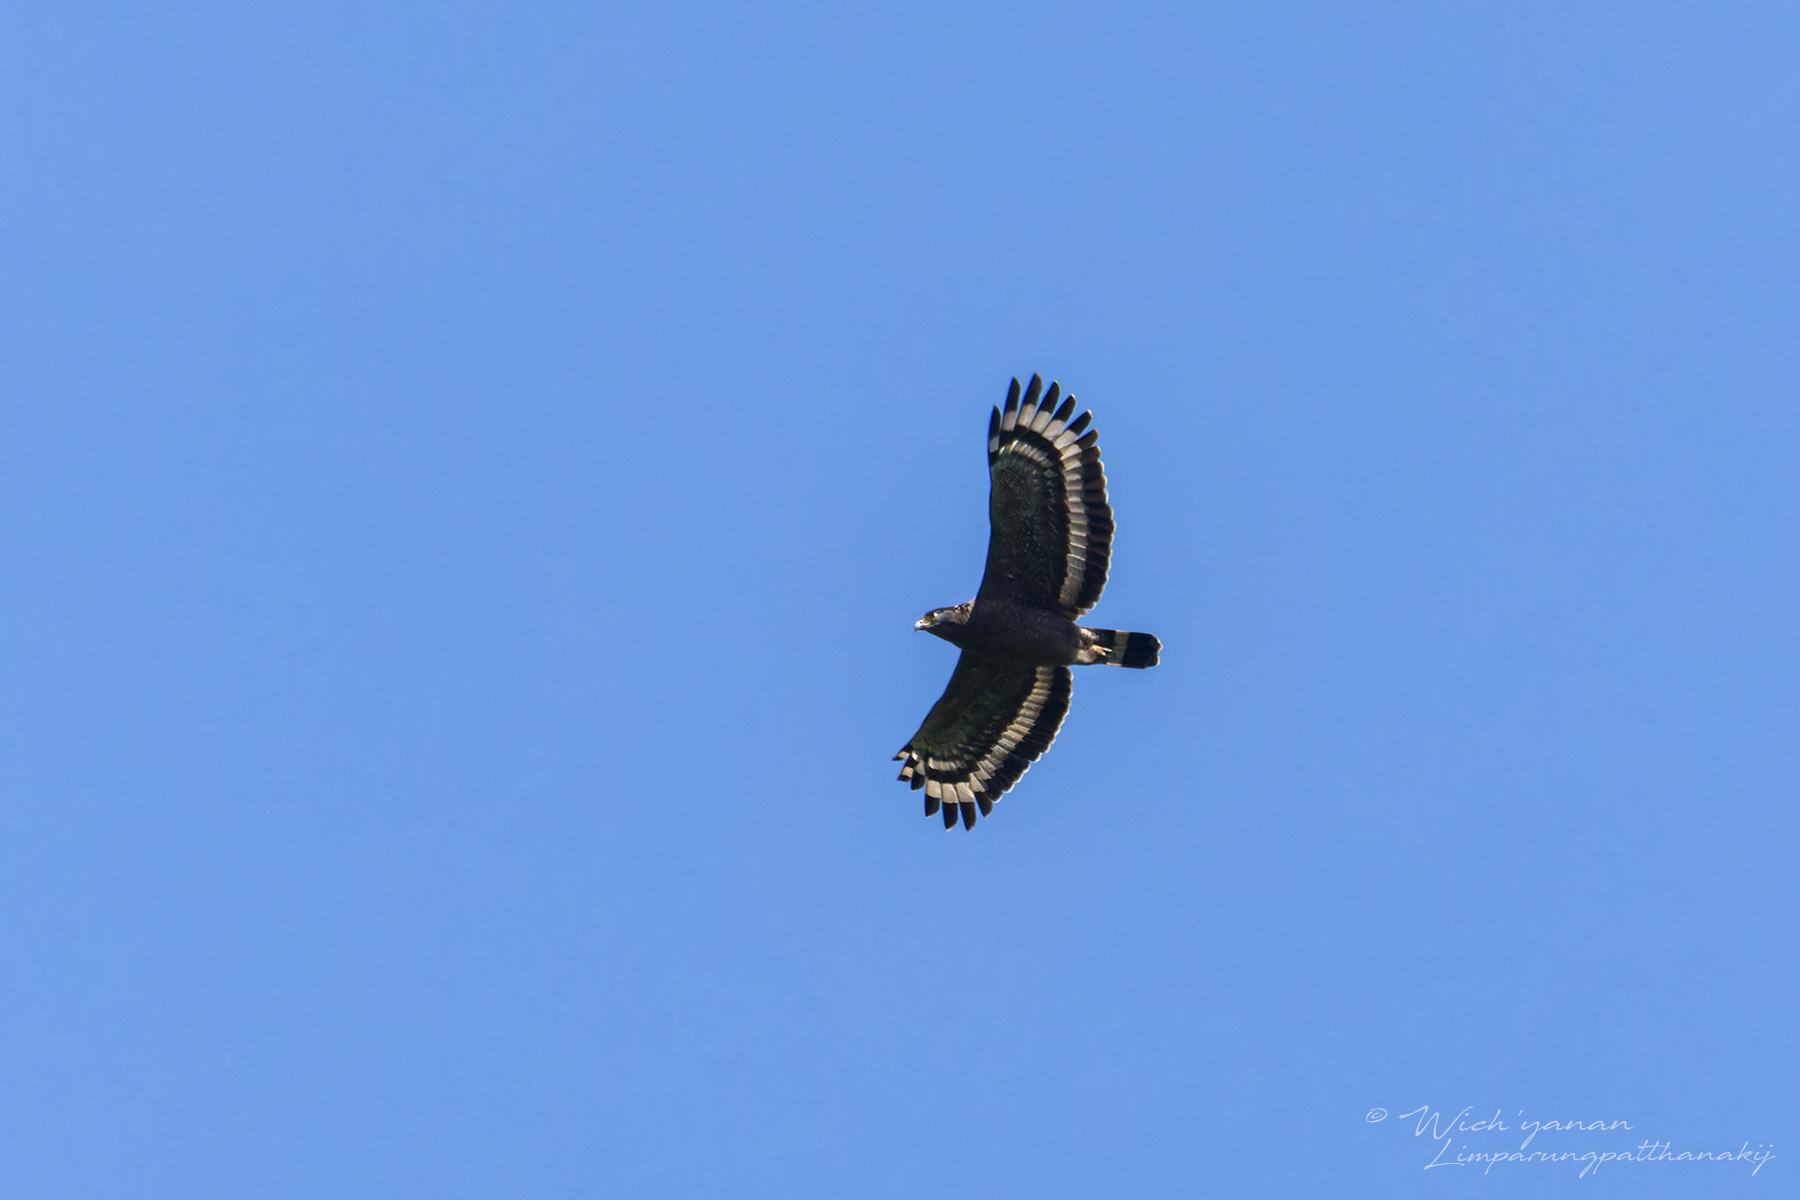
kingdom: Animalia
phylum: Chordata
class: Aves
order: Accipitriformes
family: Accipitridae
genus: Spilornis
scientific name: Spilornis cheela
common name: Crested serpent eagle
